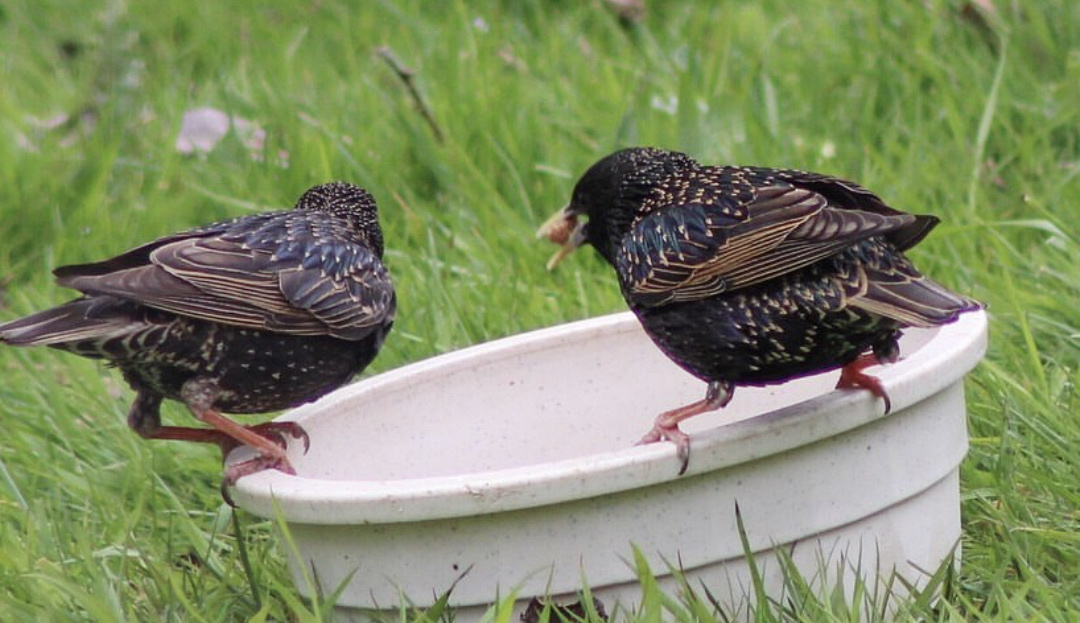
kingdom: Animalia
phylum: Chordata
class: Aves
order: Passeriformes
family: Sturnidae
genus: Sturnus
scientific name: Sturnus vulgaris
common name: Common starling
